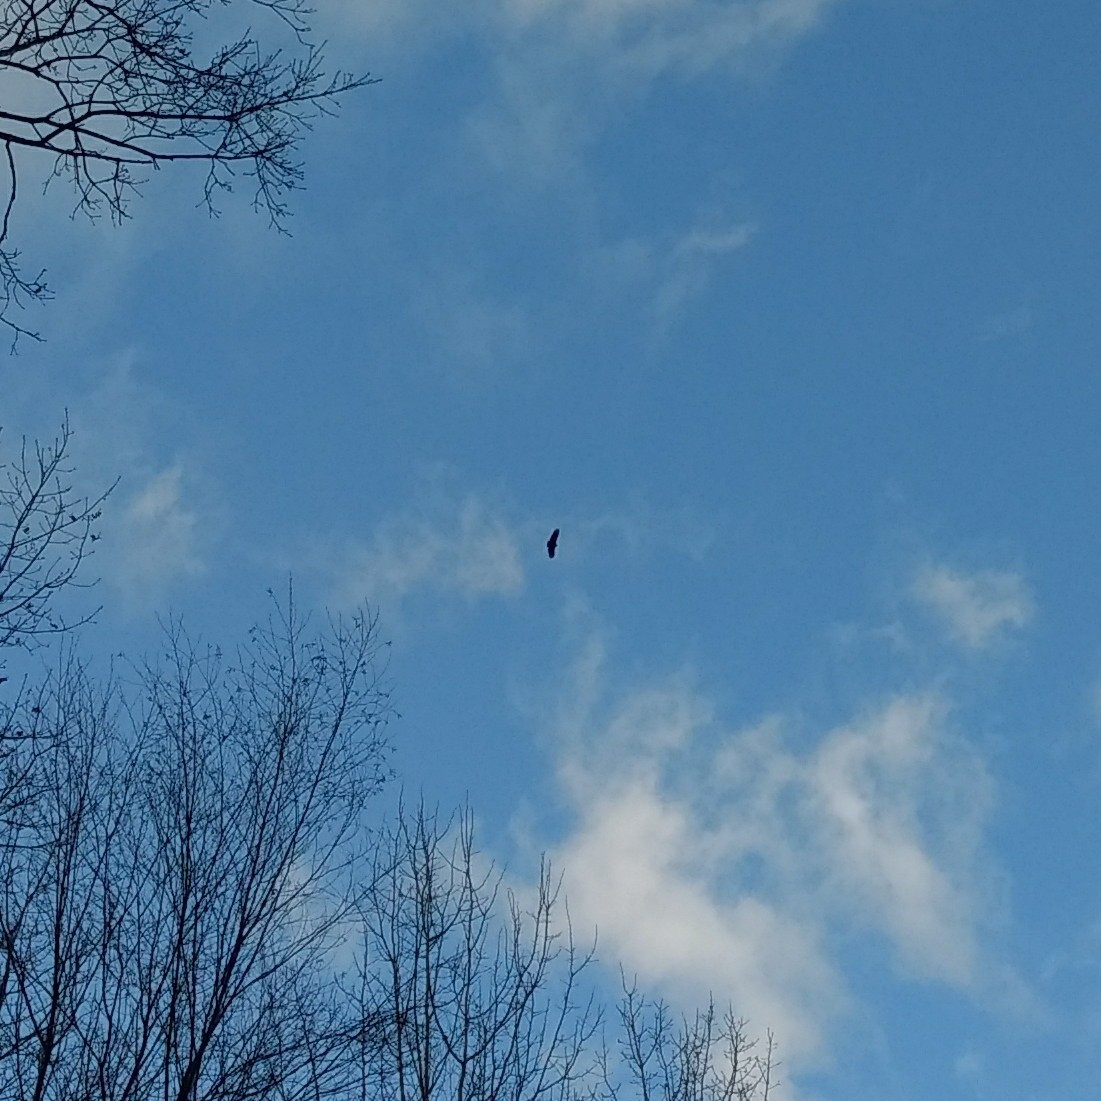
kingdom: Animalia
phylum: Chordata
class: Aves
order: Accipitriformes
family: Cathartidae
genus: Coragyps
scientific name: Coragyps atratus
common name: Black vulture
